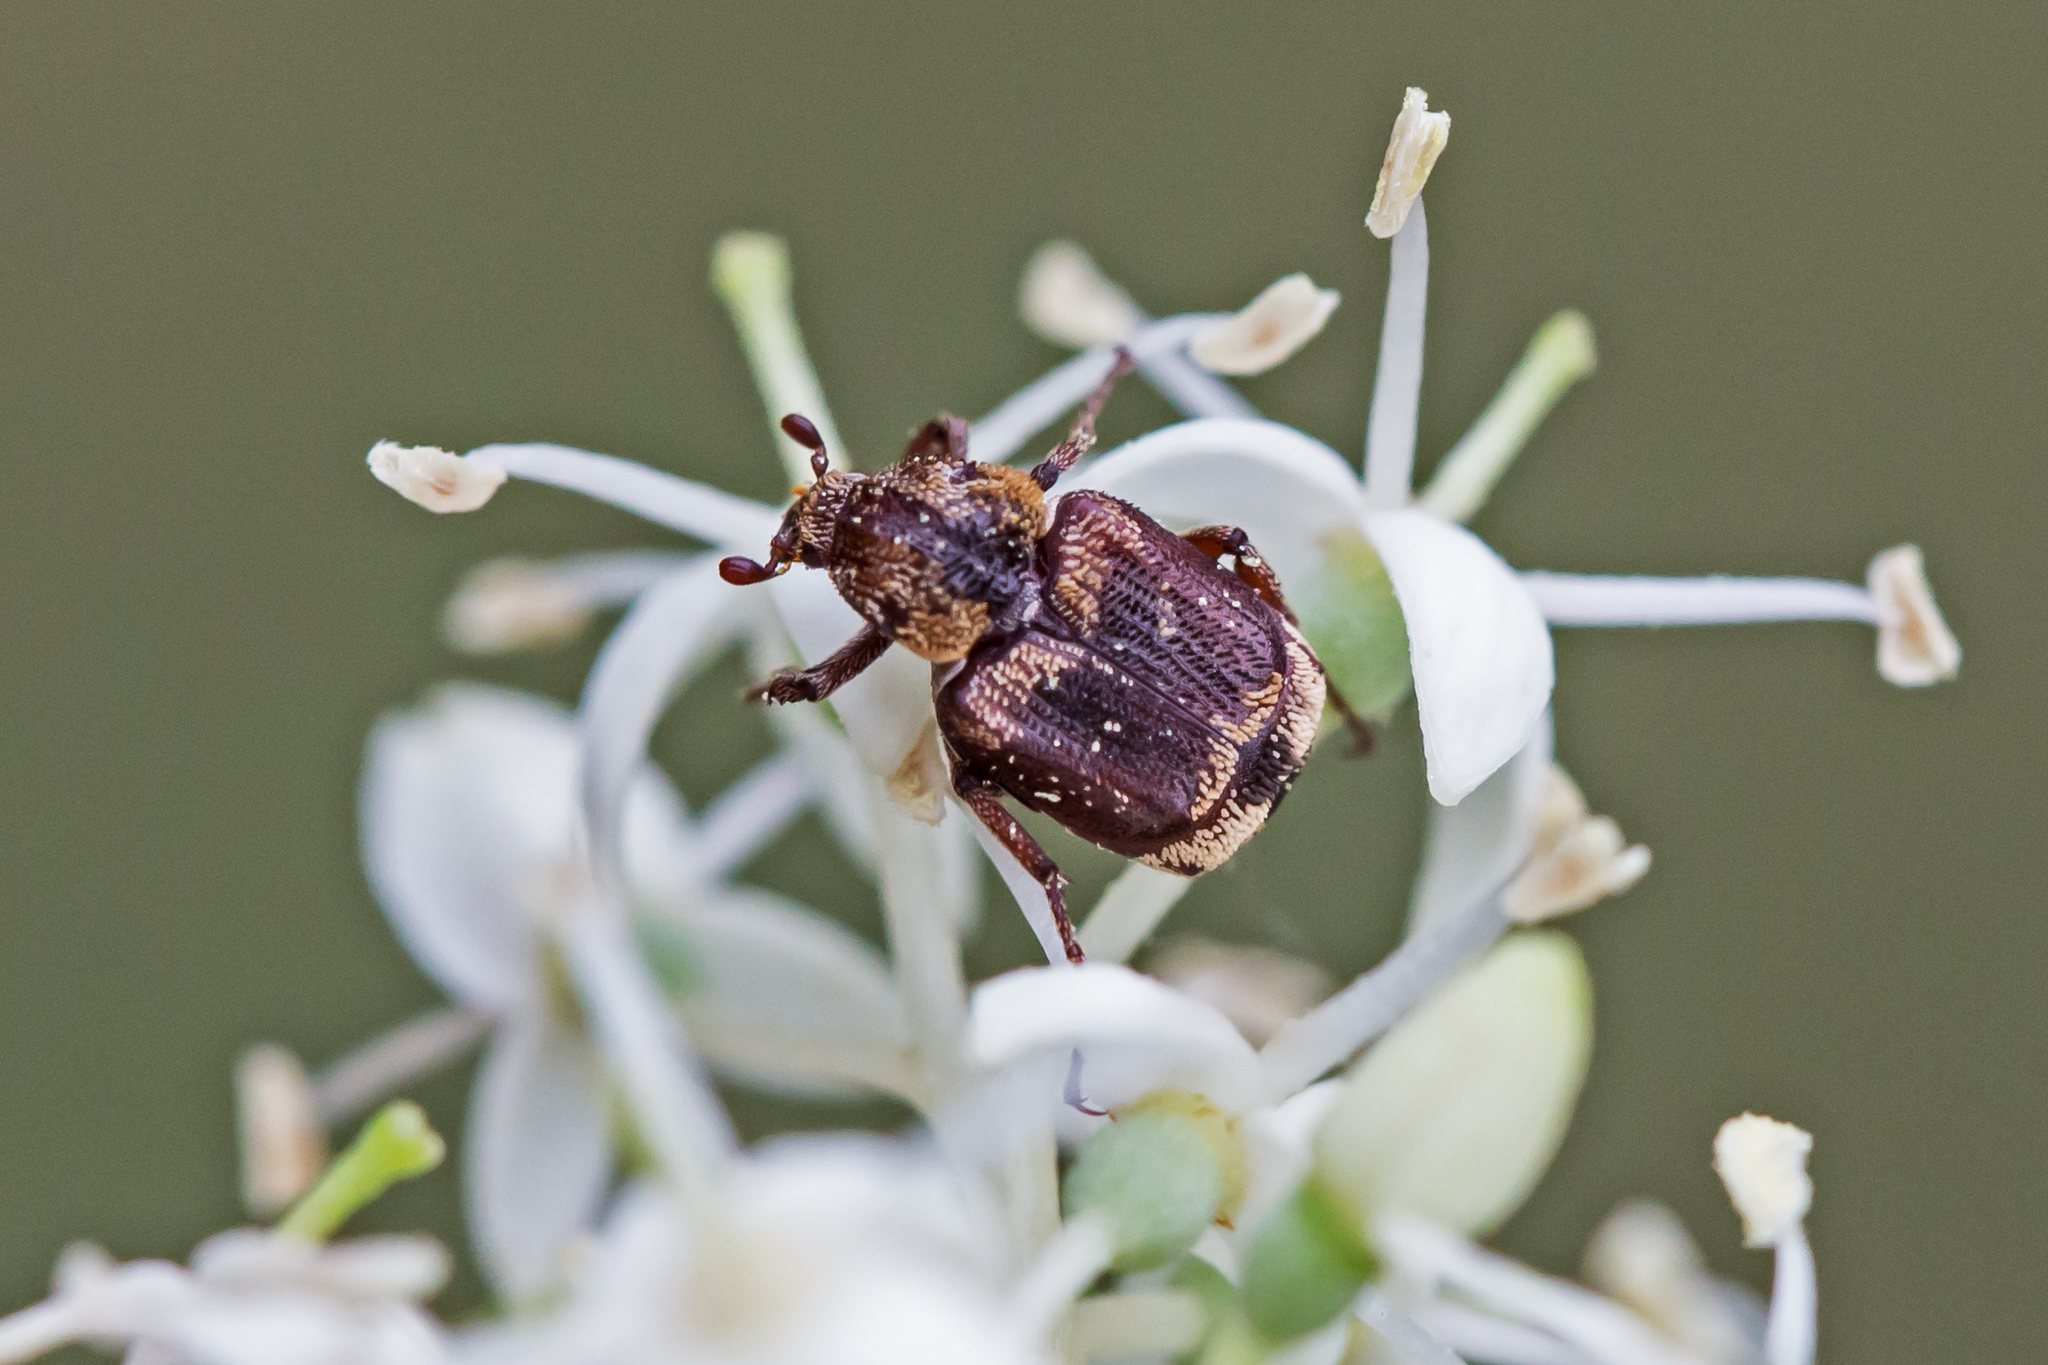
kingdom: Animalia
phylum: Arthropoda
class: Insecta
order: Coleoptera
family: Scarabaeidae
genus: Valgus
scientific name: Valgus canaliculatus
